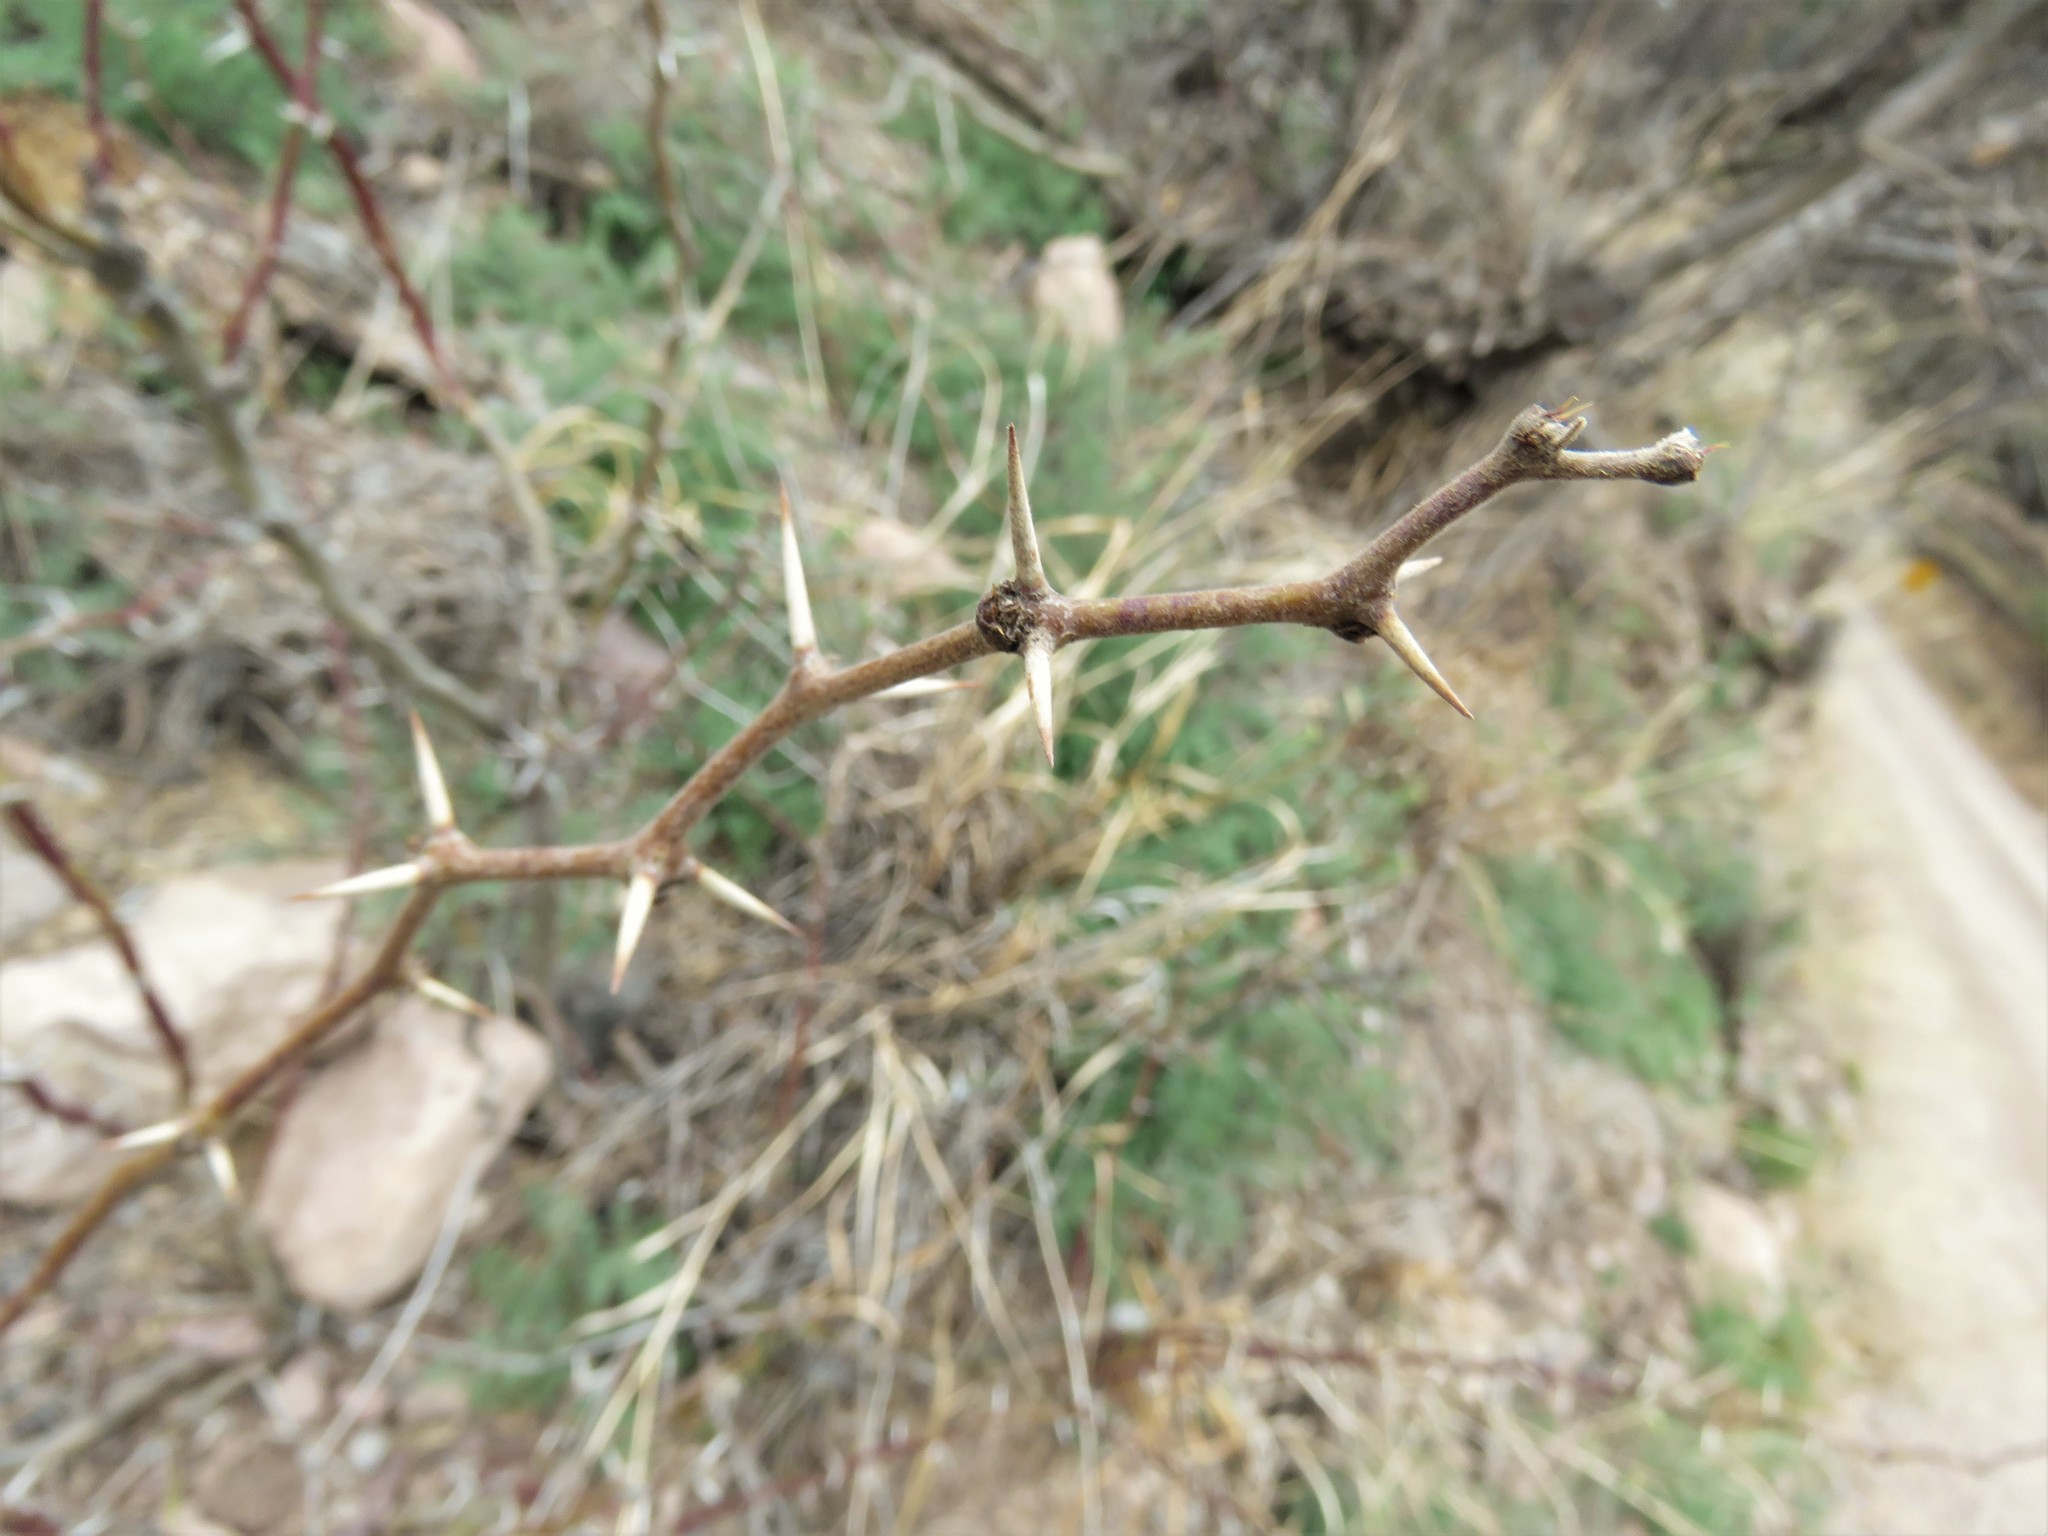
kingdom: Plantae
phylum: Tracheophyta
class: Magnoliopsida
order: Fabales
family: Fabaceae
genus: Prosopis
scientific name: Prosopis velutina
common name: Velvet mesquite
